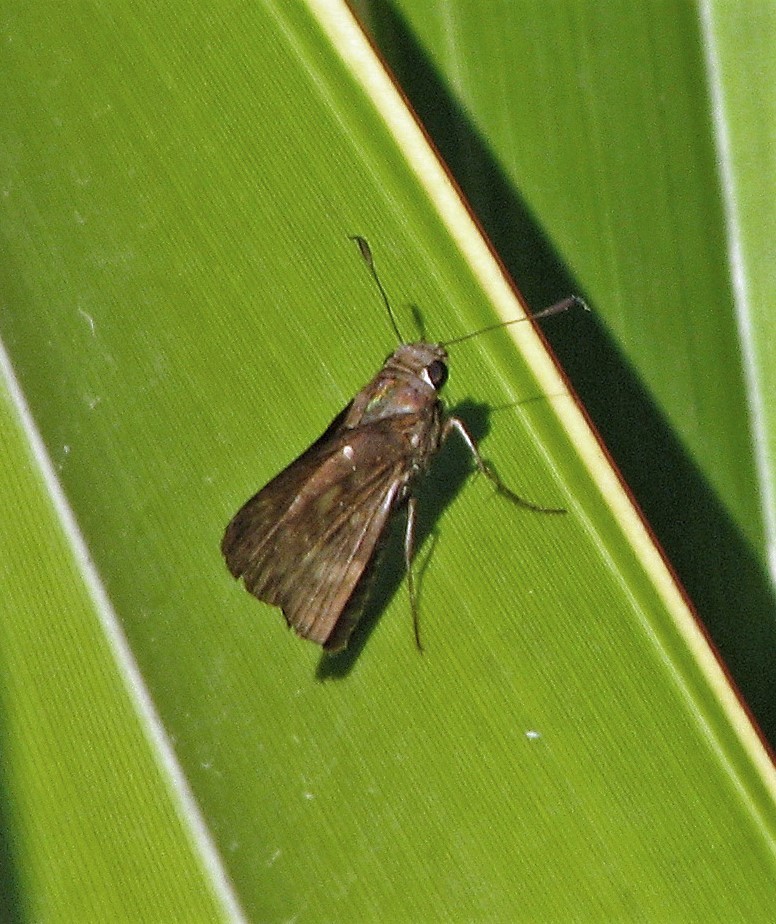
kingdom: Animalia
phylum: Arthropoda
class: Insecta
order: Lepidoptera
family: Hesperiidae
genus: Quinta
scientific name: Quinta cannae
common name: Canna skipper
